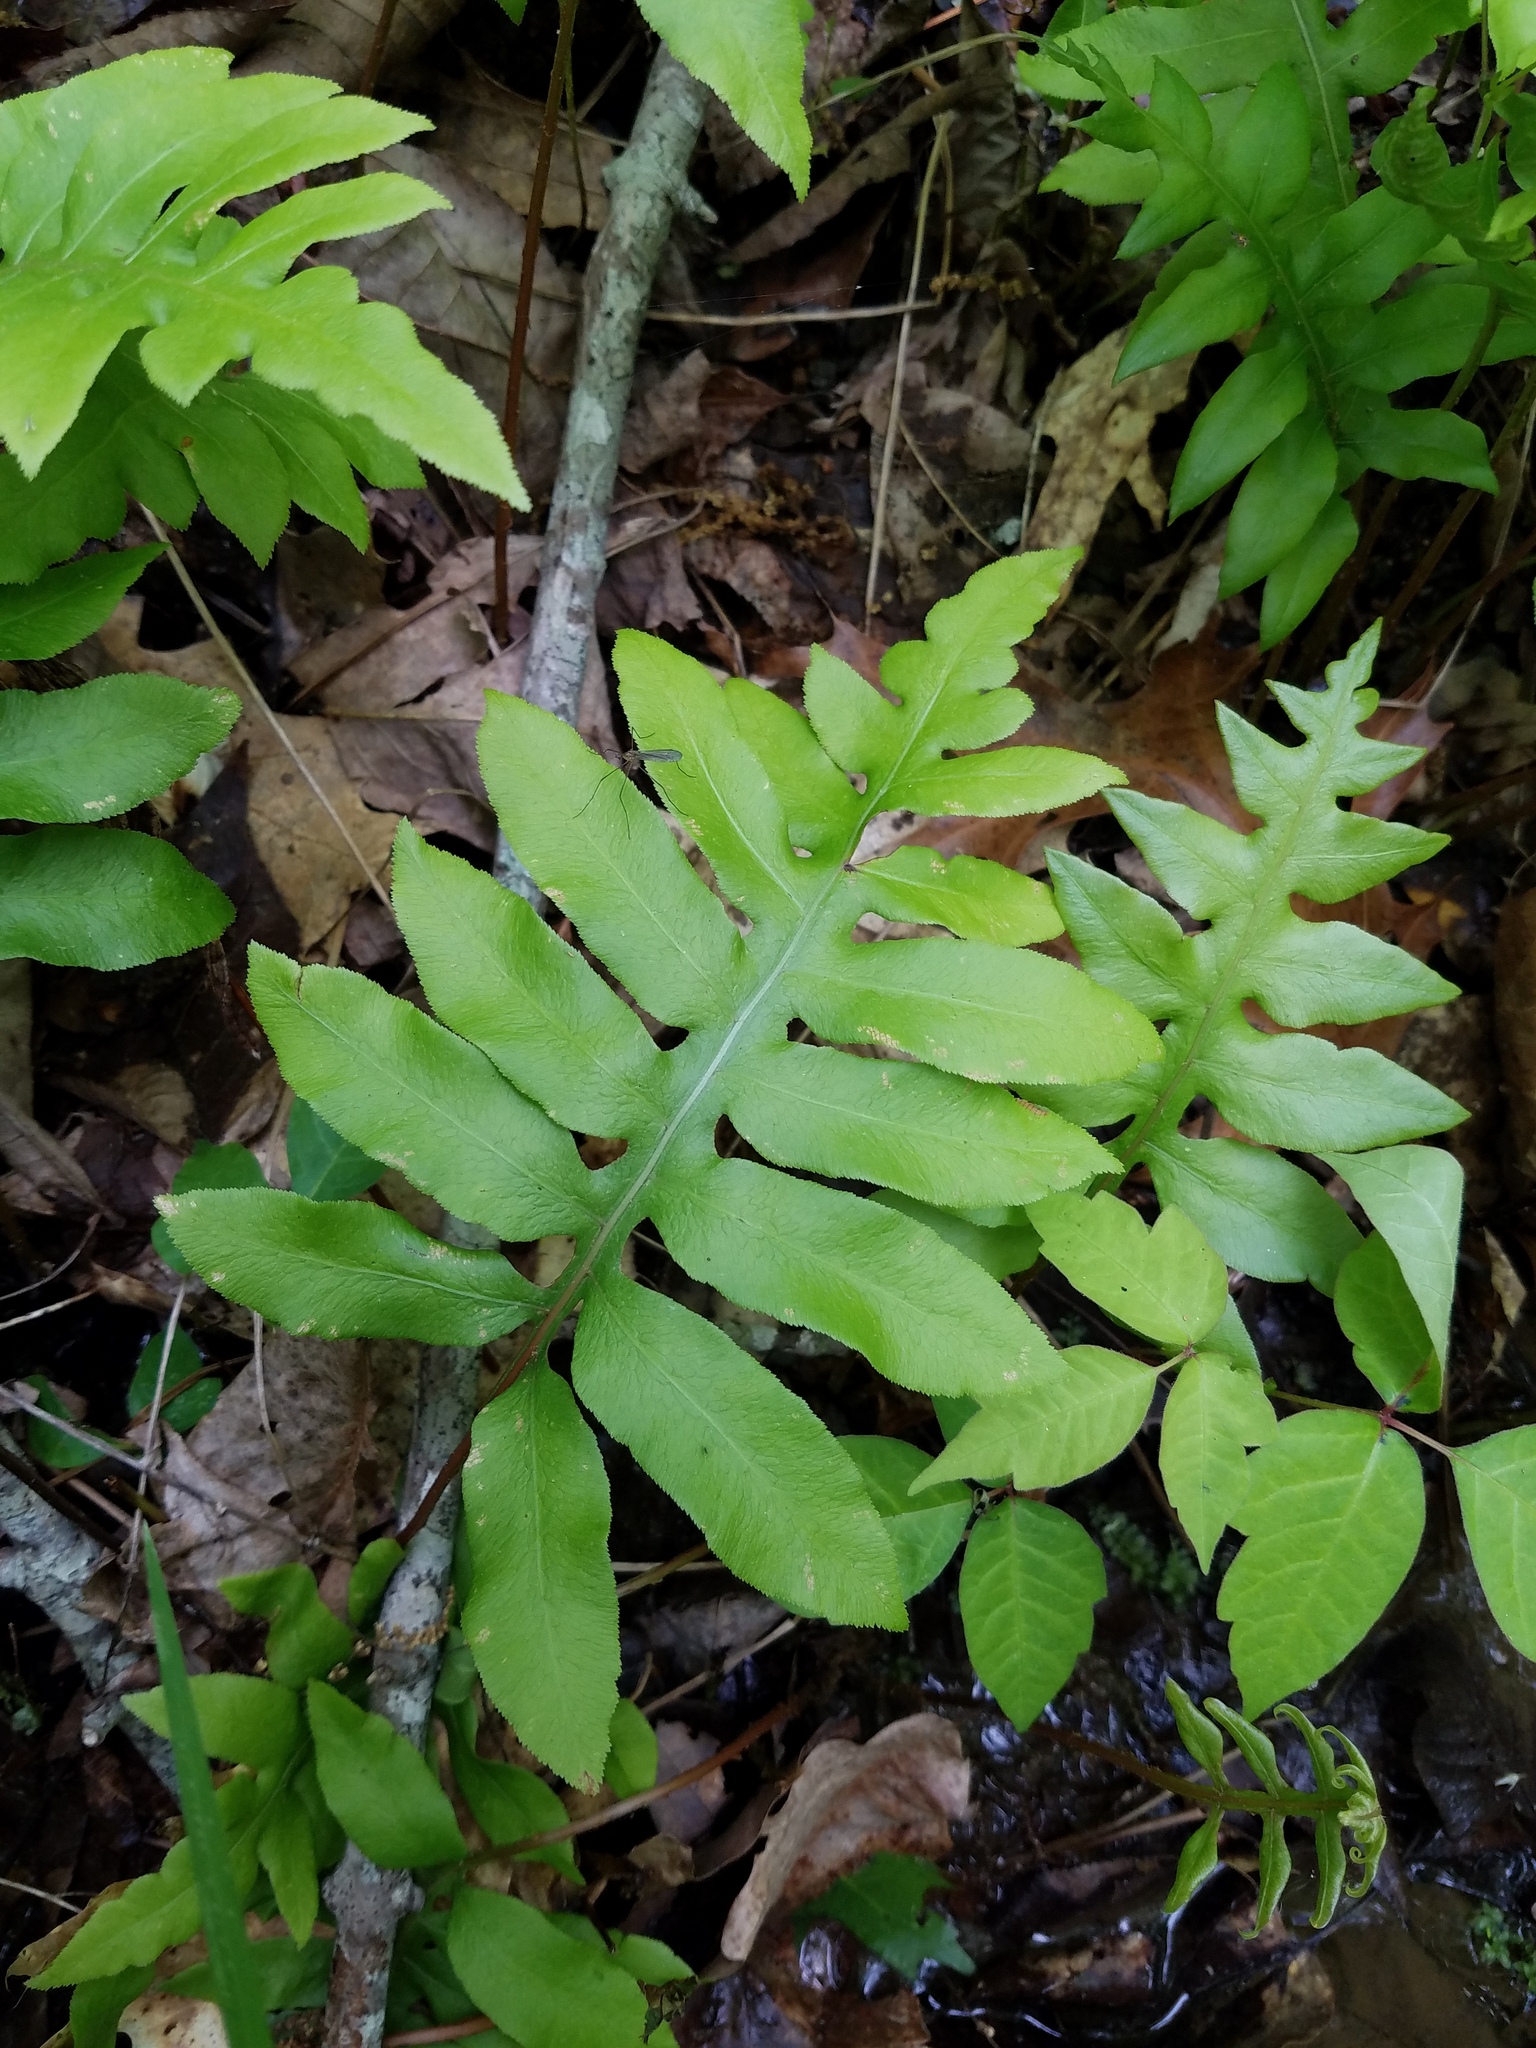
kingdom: Plantae
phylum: Tracheophyta
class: Polypodiopsida
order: Polypodiales
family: Blechnaceae
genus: Lorinseria
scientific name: Lorinseria areolata
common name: Dwarf chain fern
